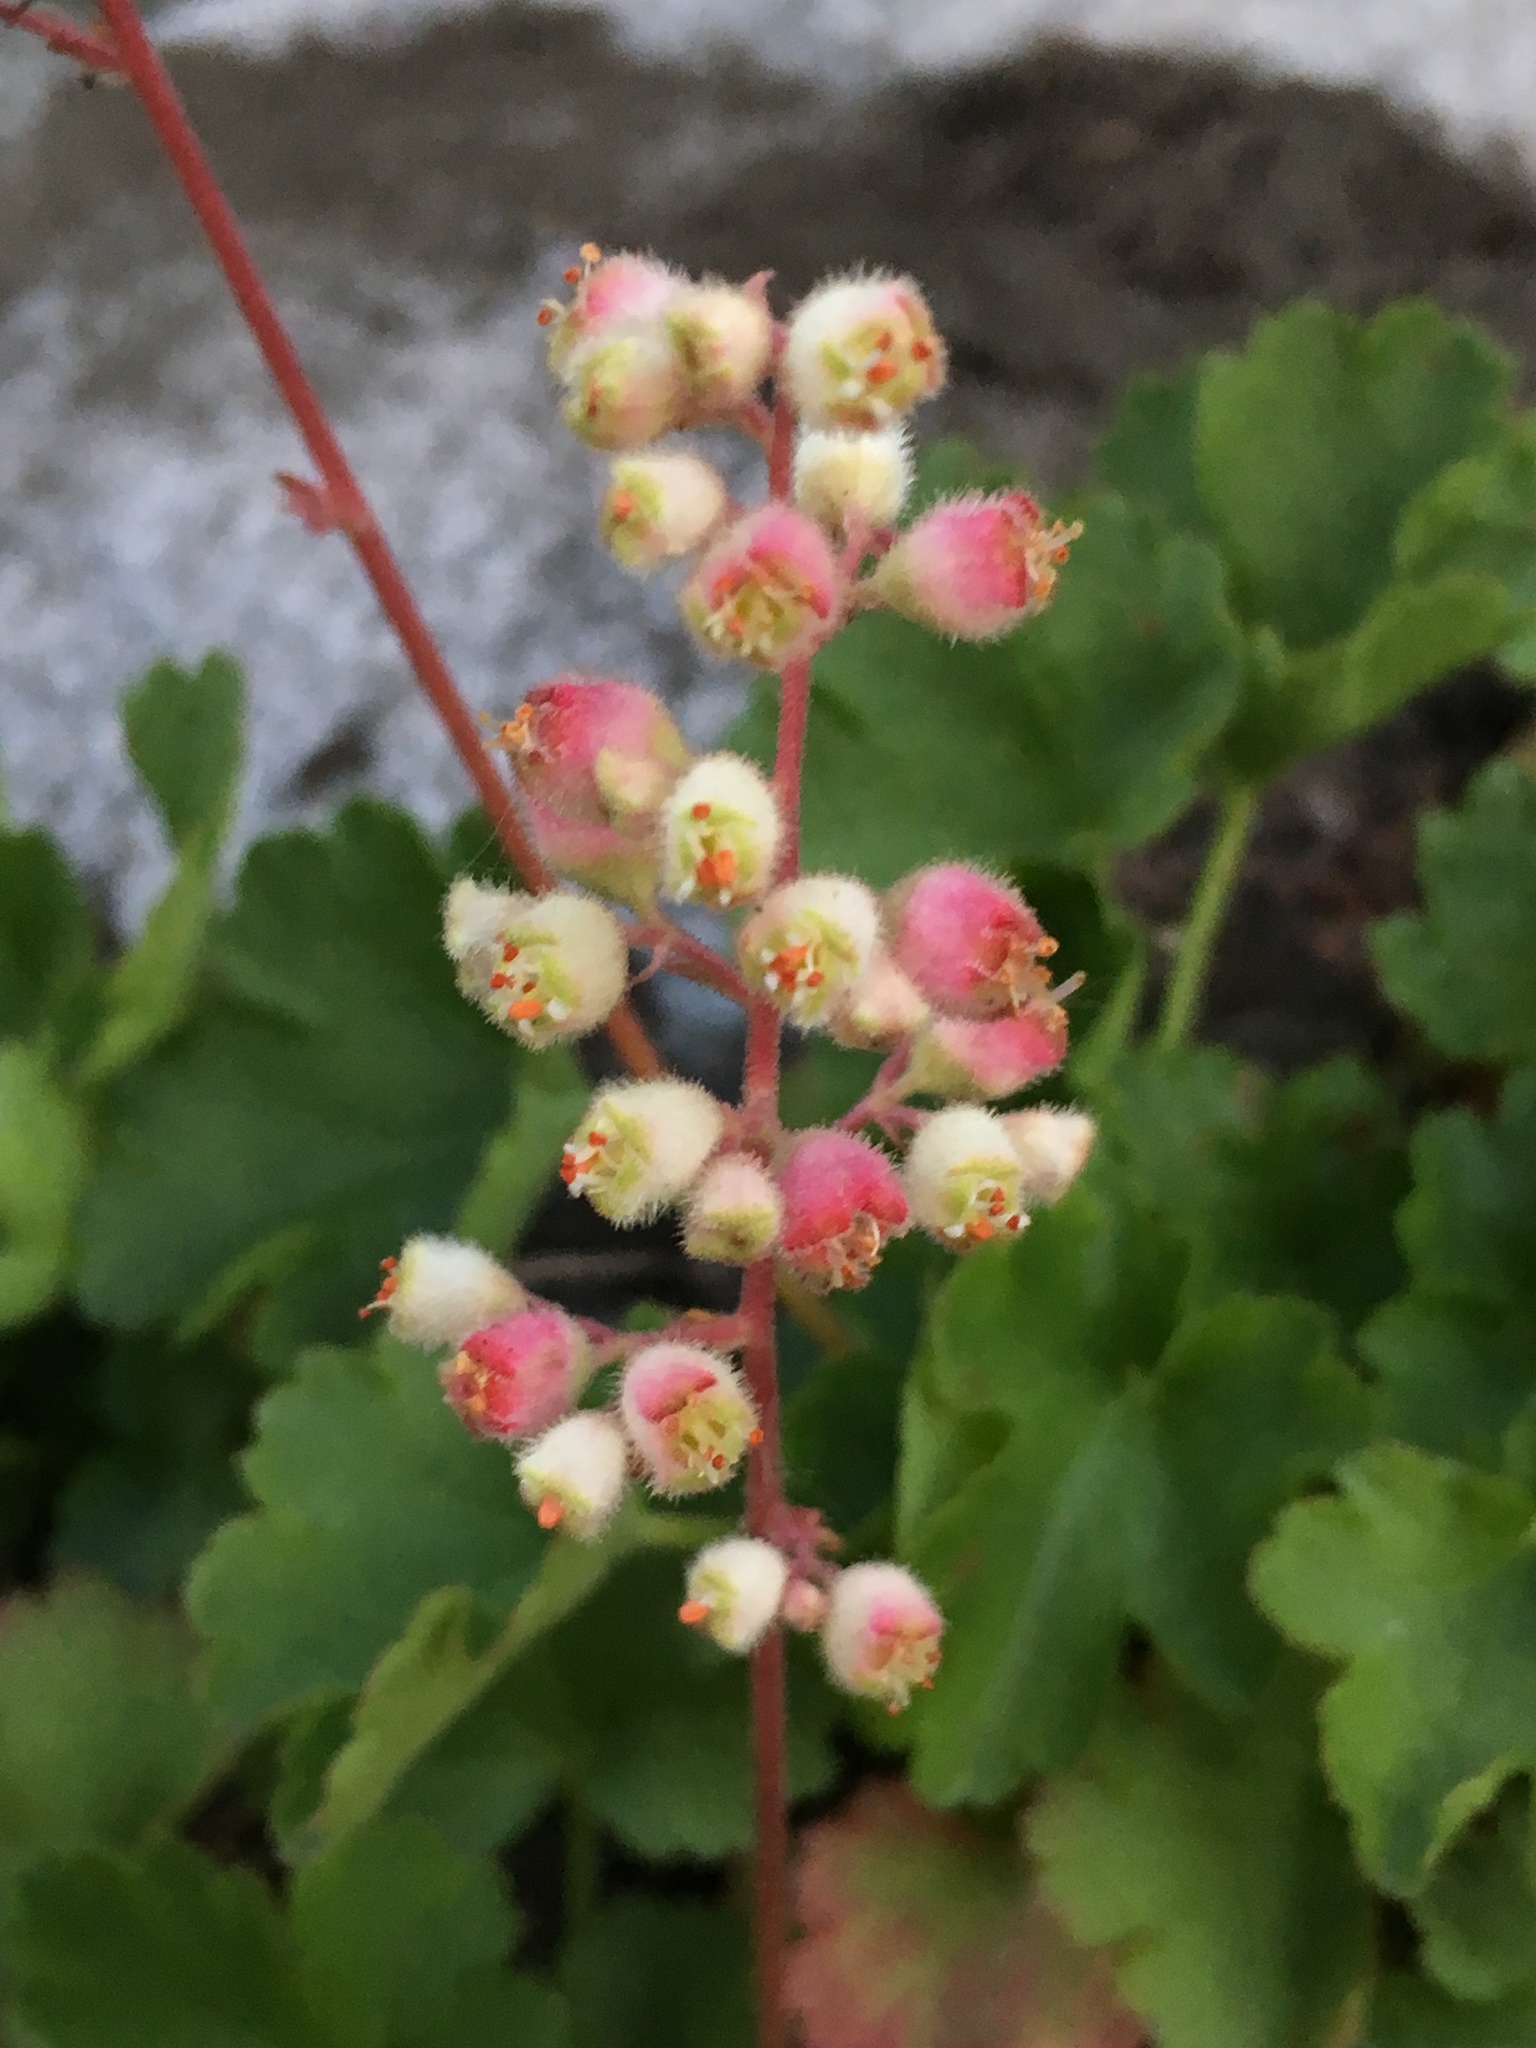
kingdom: Plantae
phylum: Tracheophyta
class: Magnoliopsida
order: Saxifragales
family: Saxifragaceae
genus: Heuchera
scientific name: Heuchera merriamii
